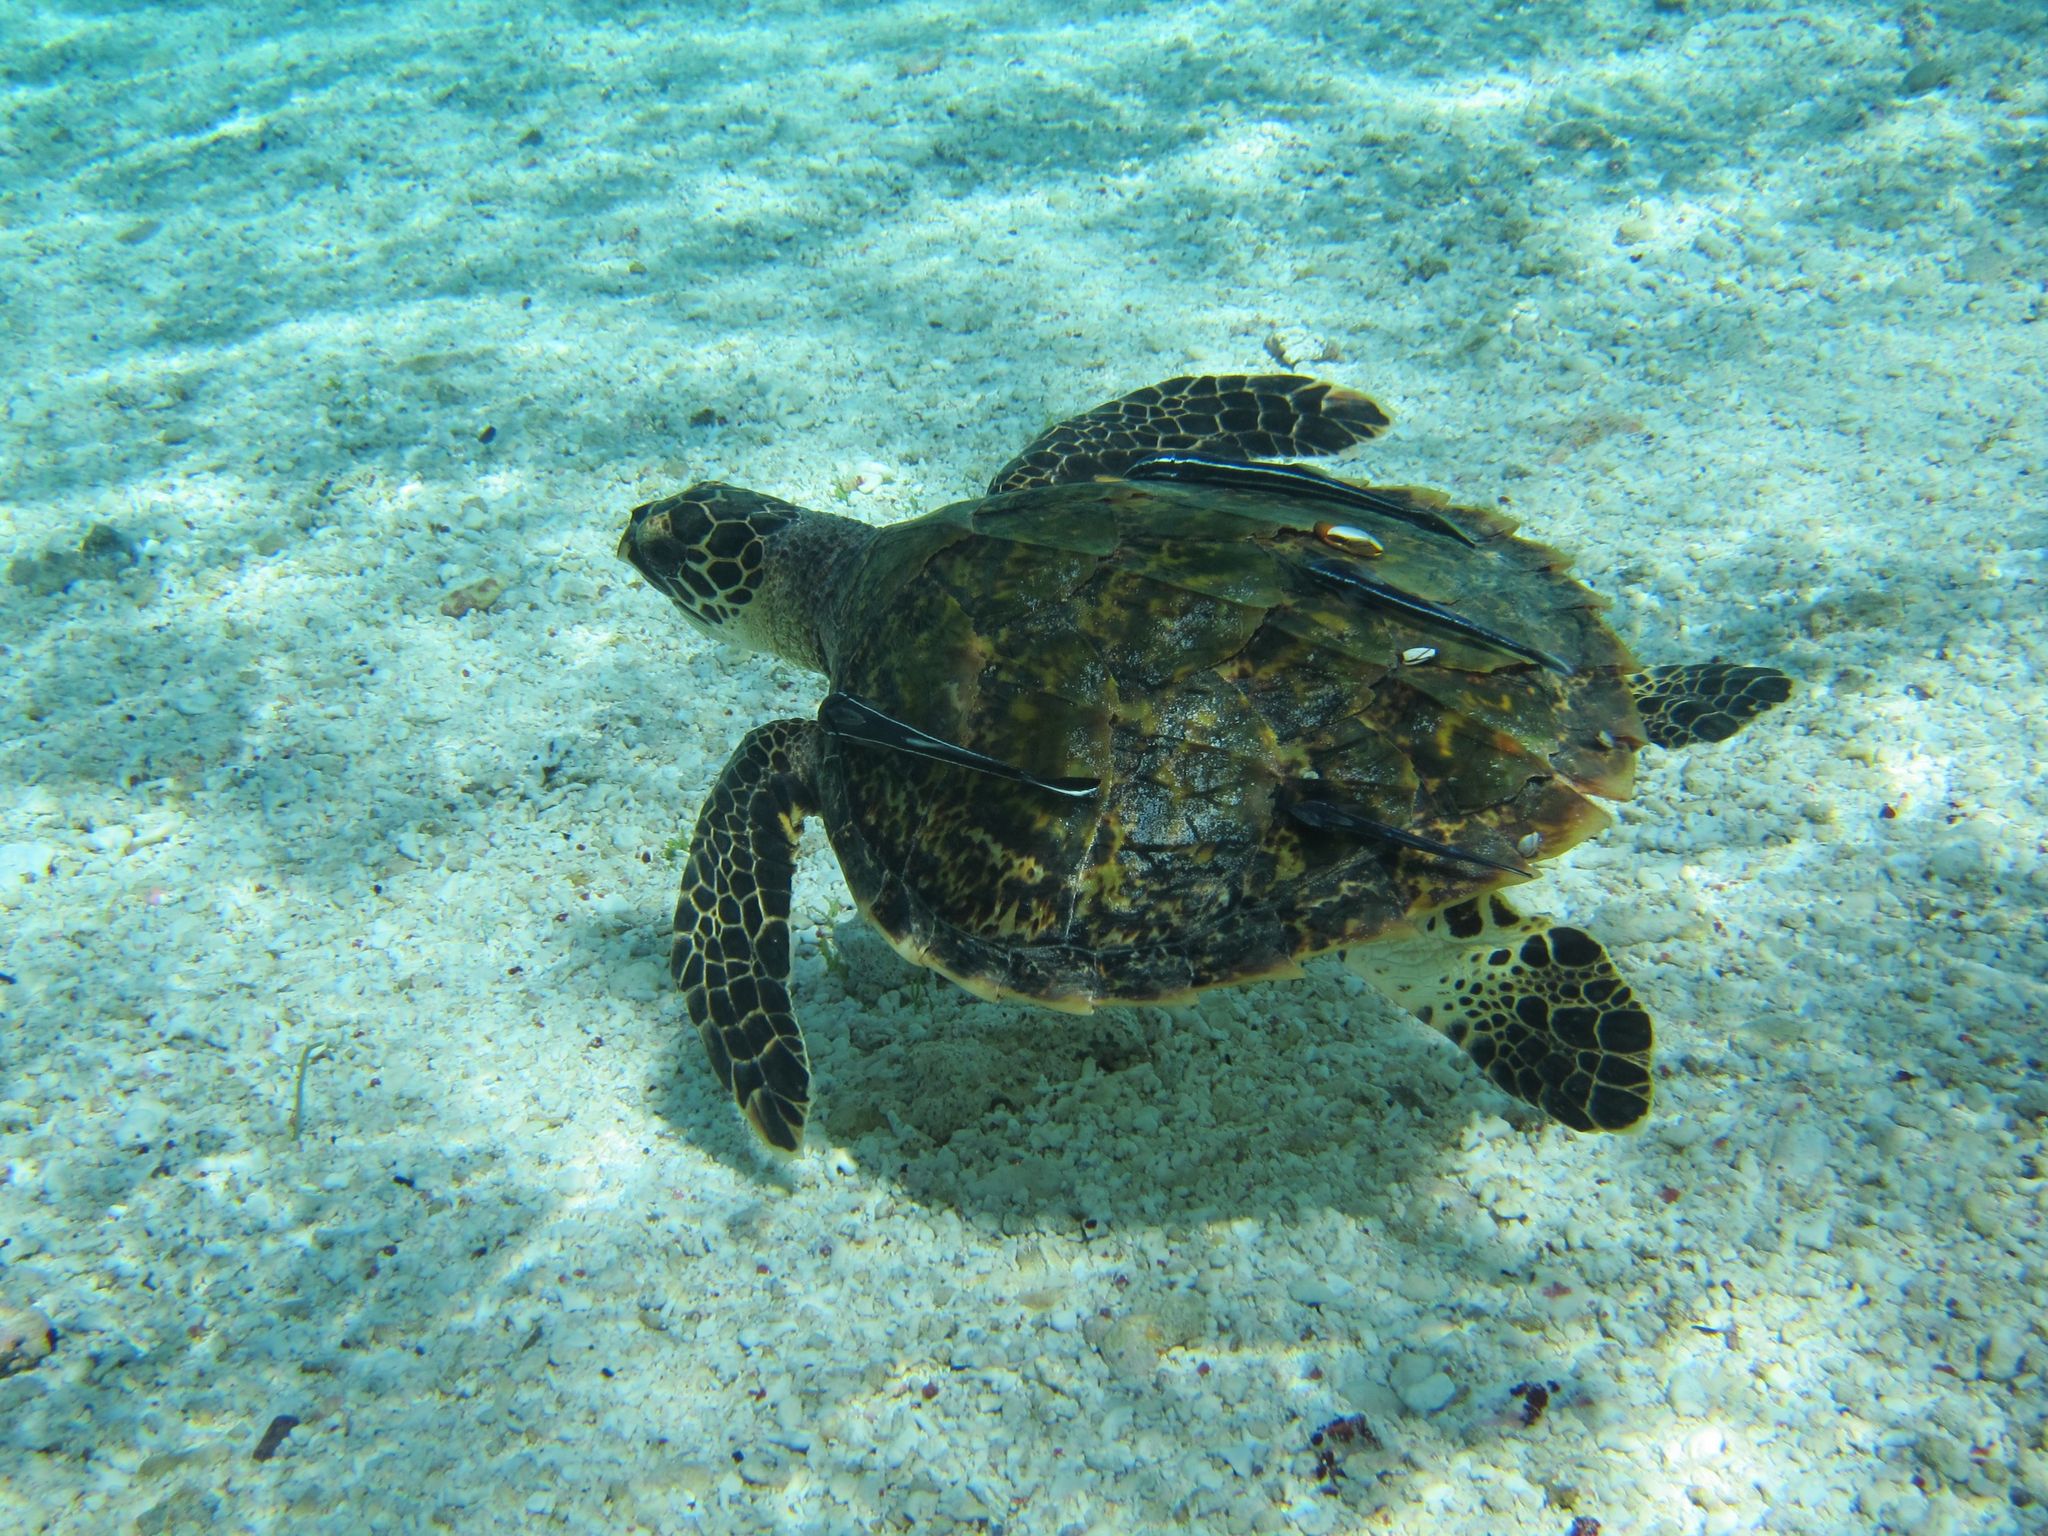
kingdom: Animalia
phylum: Chordata
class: Testudines
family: Cheloniidae
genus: Eretmochelys
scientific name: Eretmochelys imbricata
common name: Hawksbill turtle
